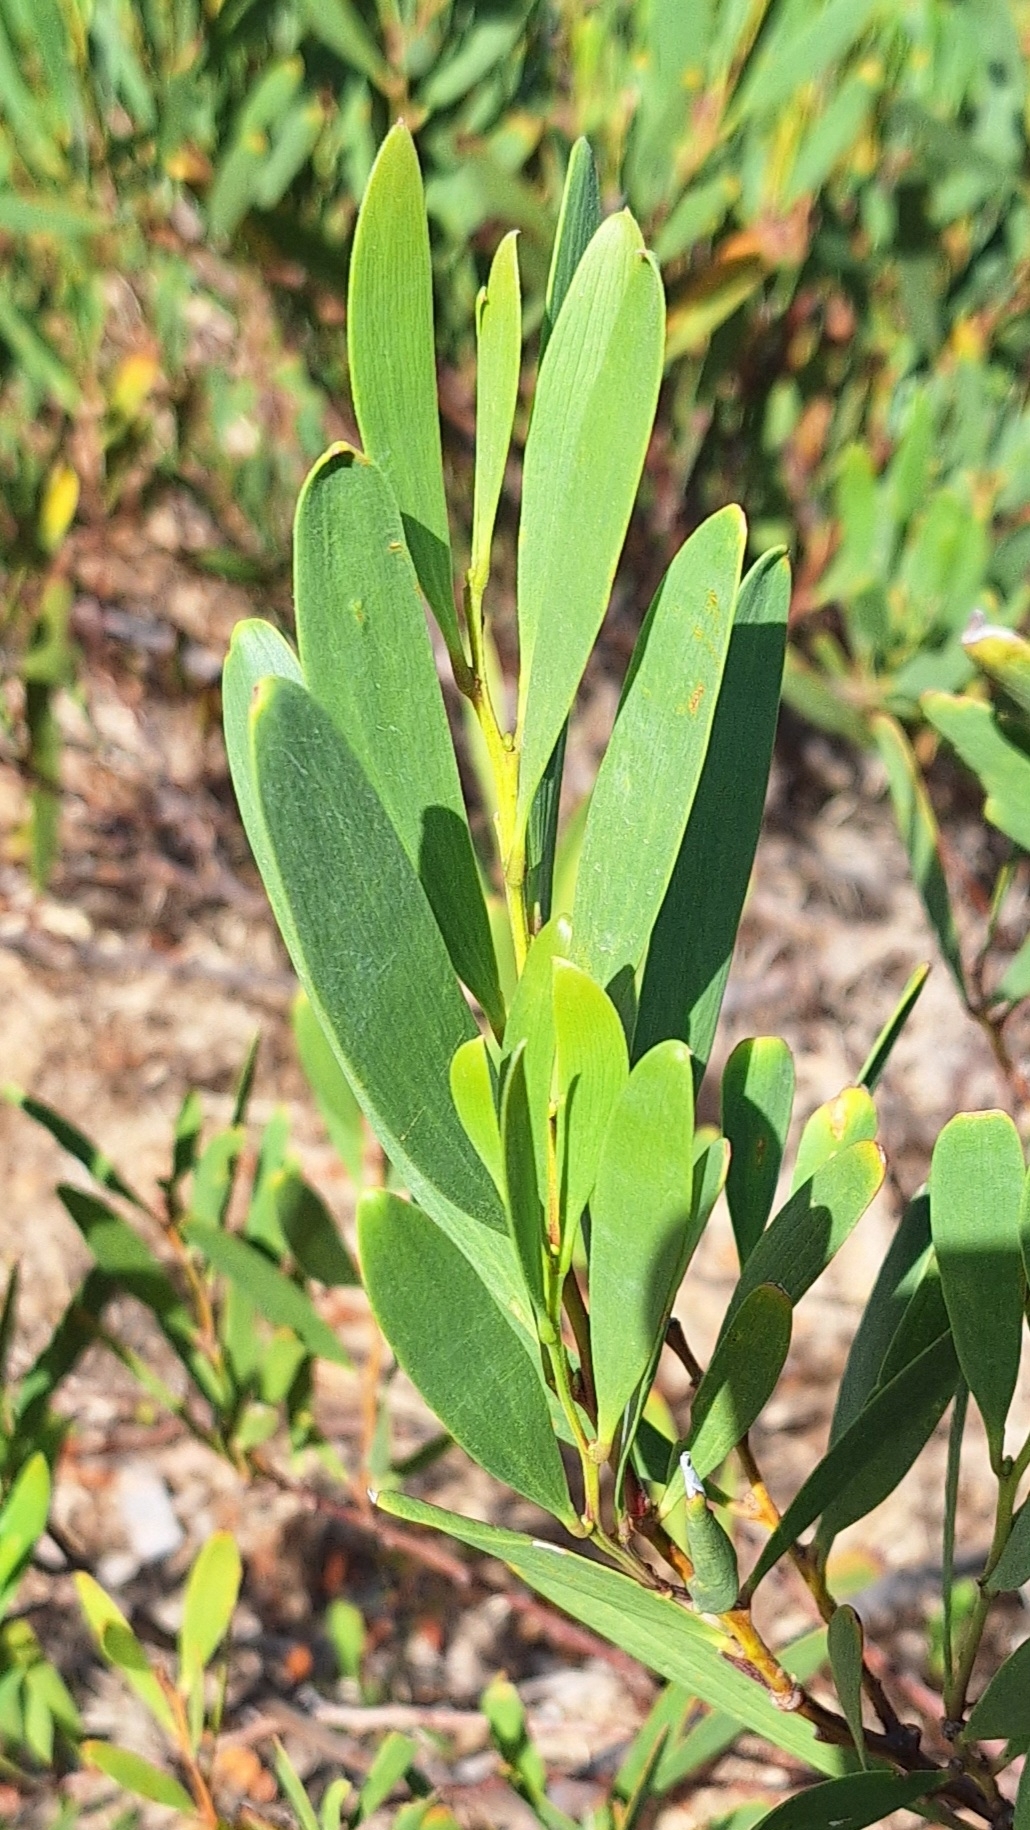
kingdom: Plantae
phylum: Tracheophyta
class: Magnoliopsida
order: Fabales
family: Fabaceae
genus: Acacia
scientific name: Acacia longifolia
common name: Sydney golden wattle
